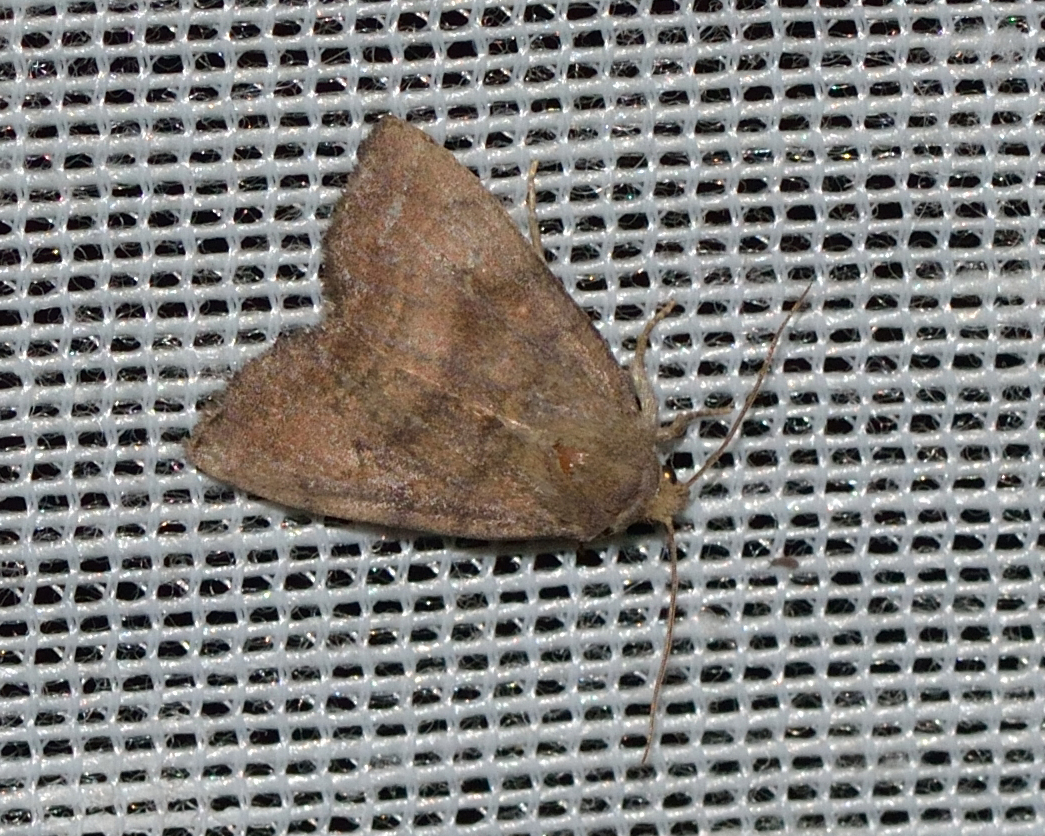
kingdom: Animalia
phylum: Arthropoda
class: Insecta
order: Lepidoptera
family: Noctuidae
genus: Ipimorpha
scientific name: Ipimorpha contusa
